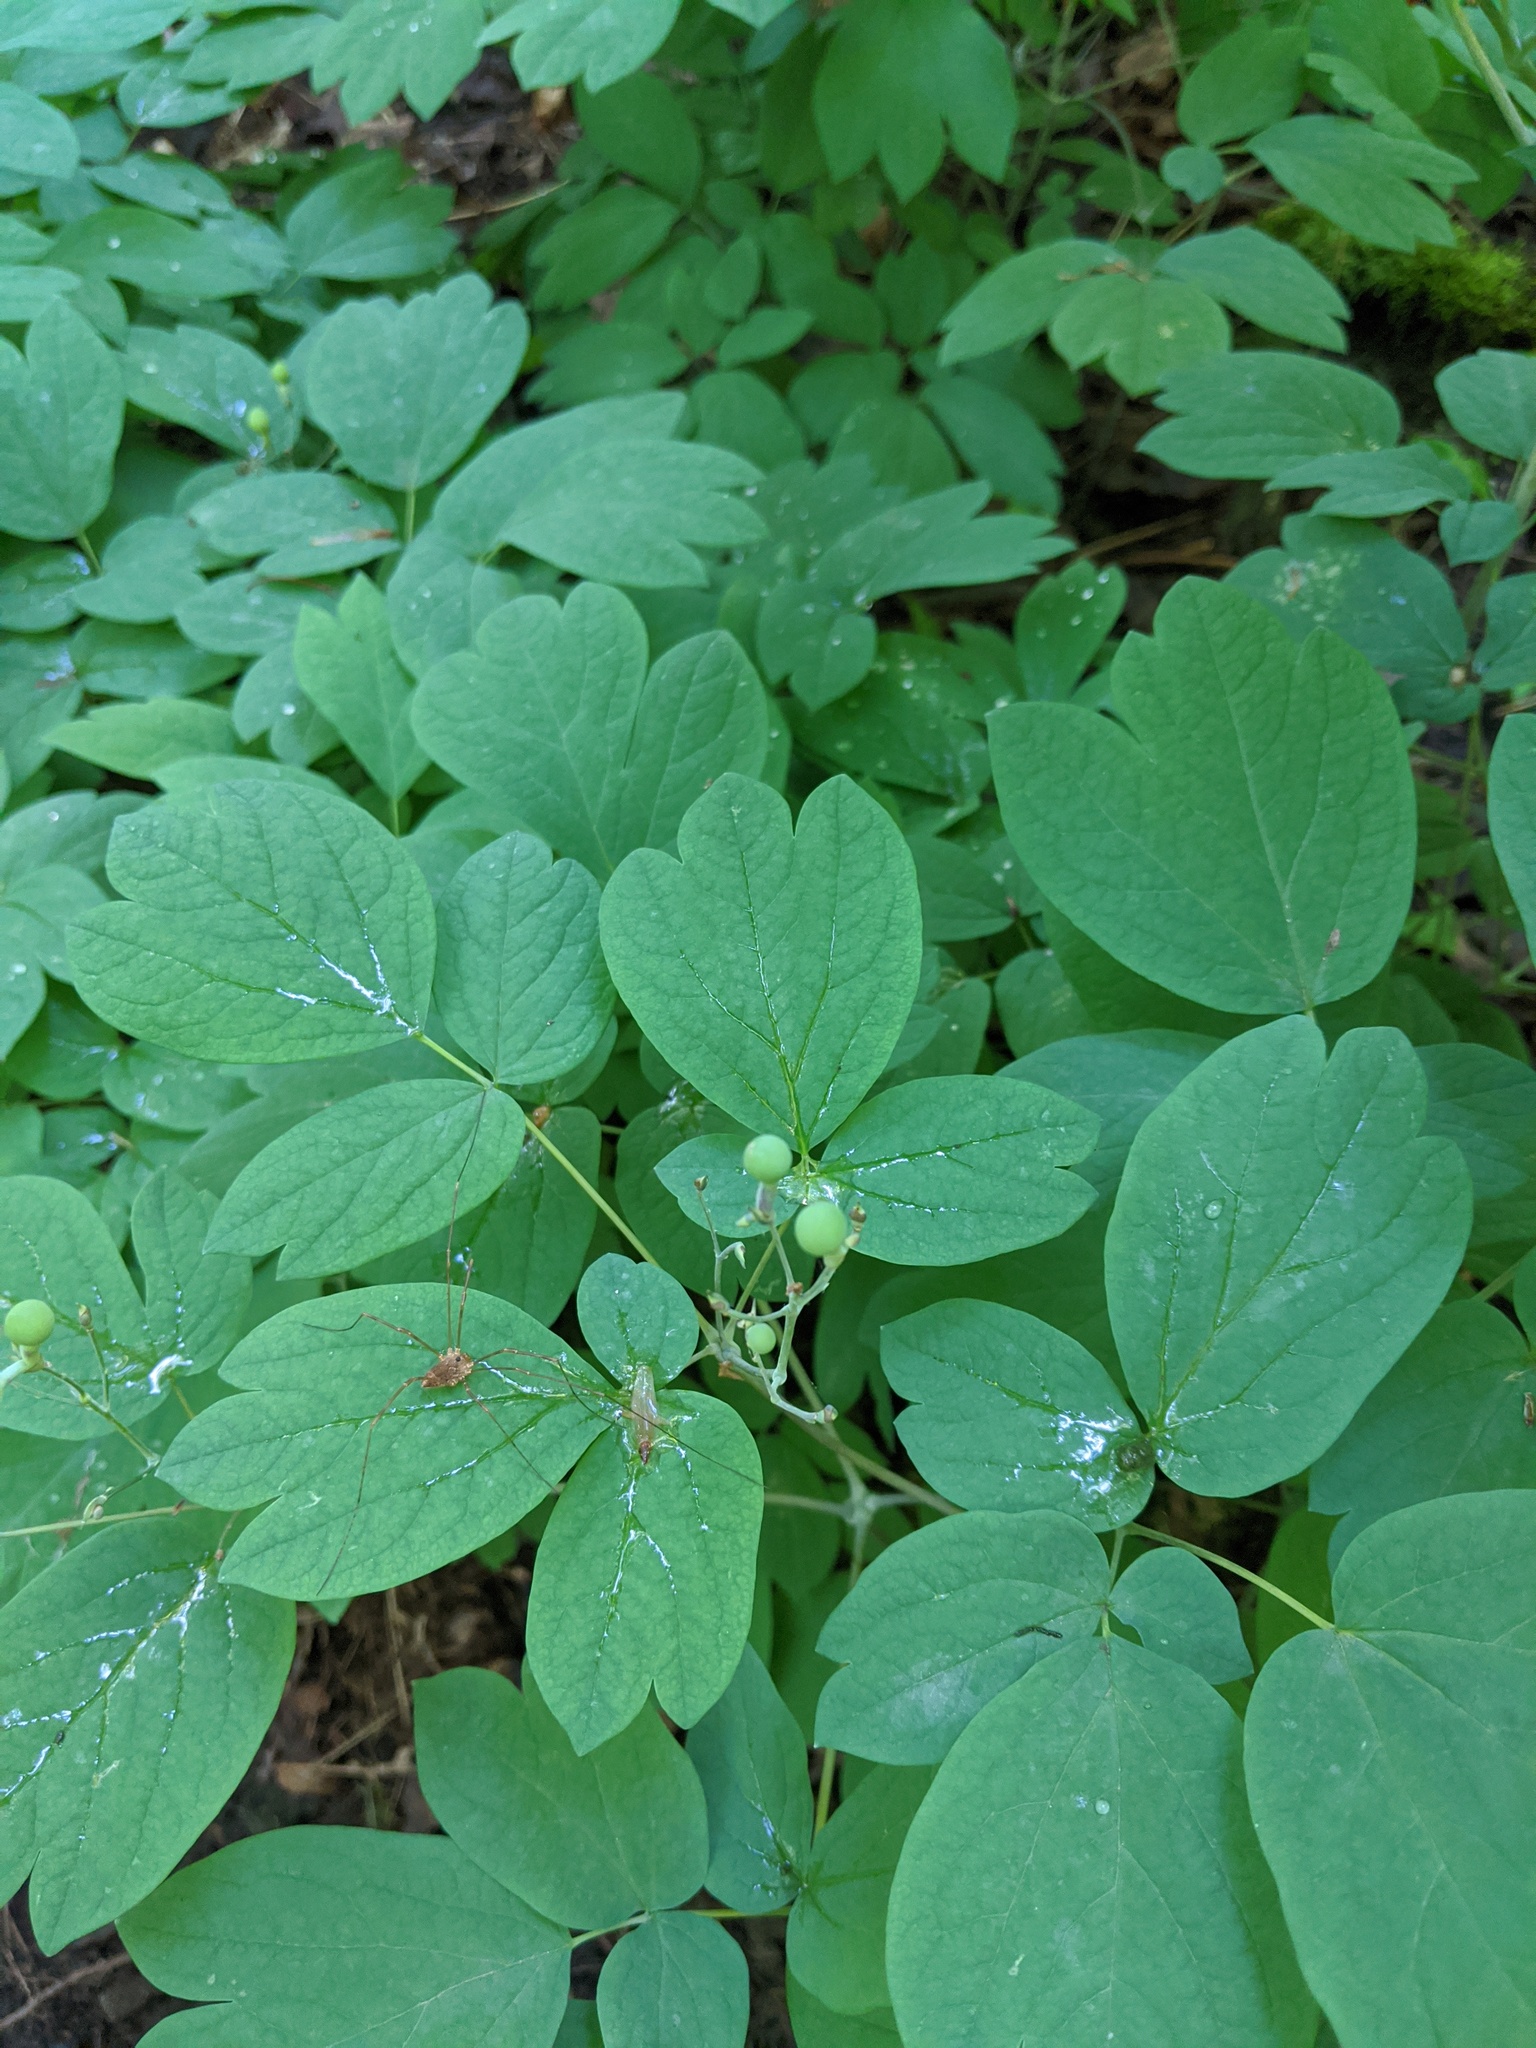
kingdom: Plantae
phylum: Tracheophyta
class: Magnoliopsida
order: Ranunculales
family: Berberidaceae
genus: Caulophyllum
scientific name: Caulophyllum
